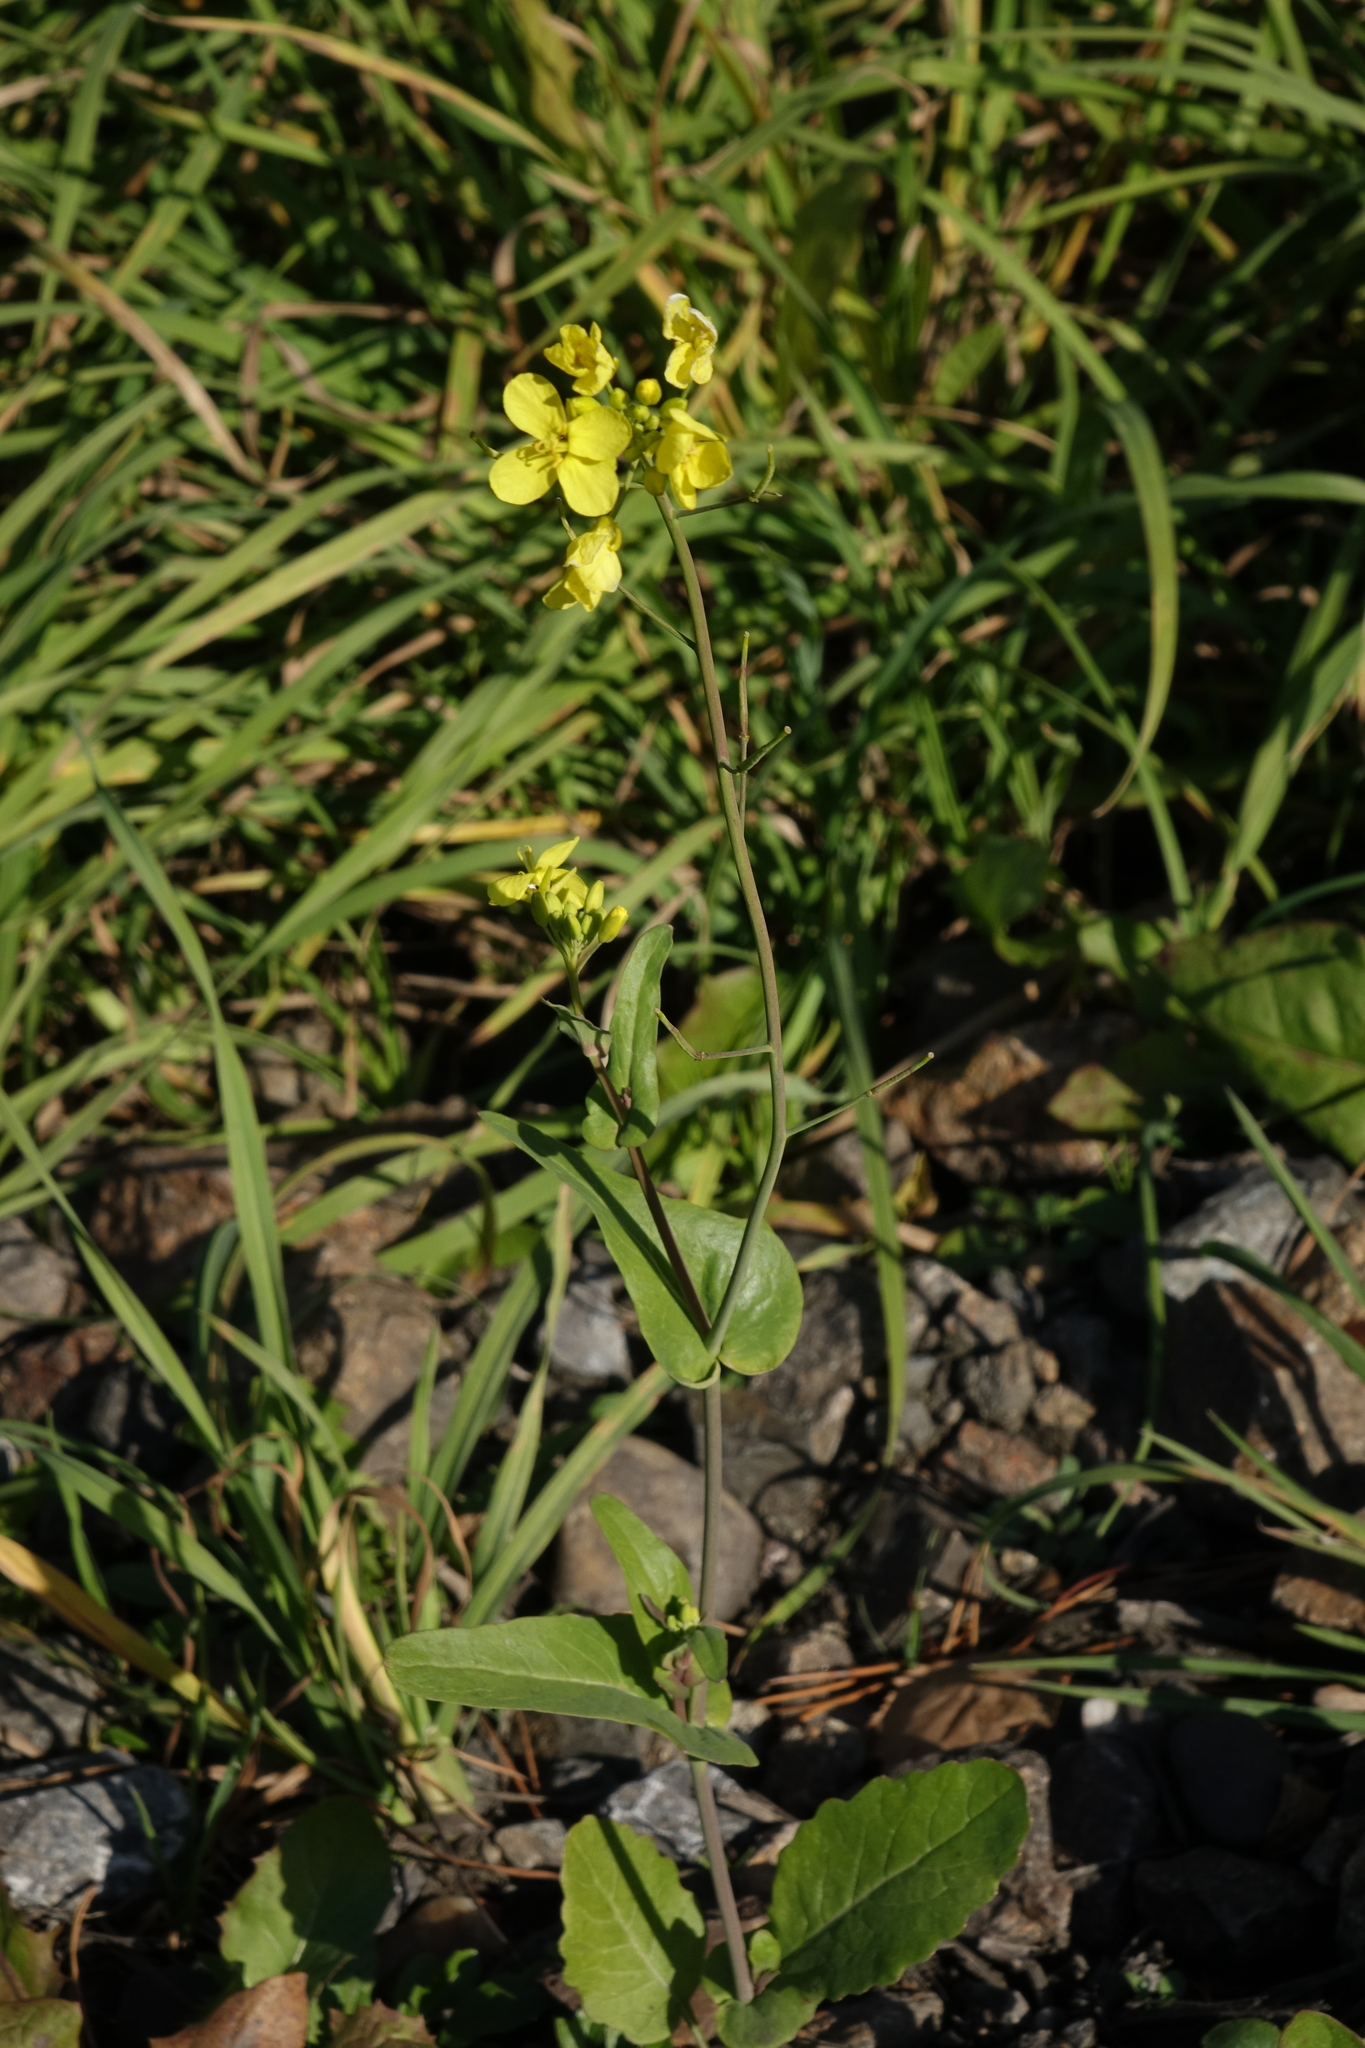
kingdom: Plantae
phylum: Tracheophyta
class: Magnoliopsida
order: Brassicales
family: Brassicaceae
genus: Brassica
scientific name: Brassica rapa
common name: Field mustard
